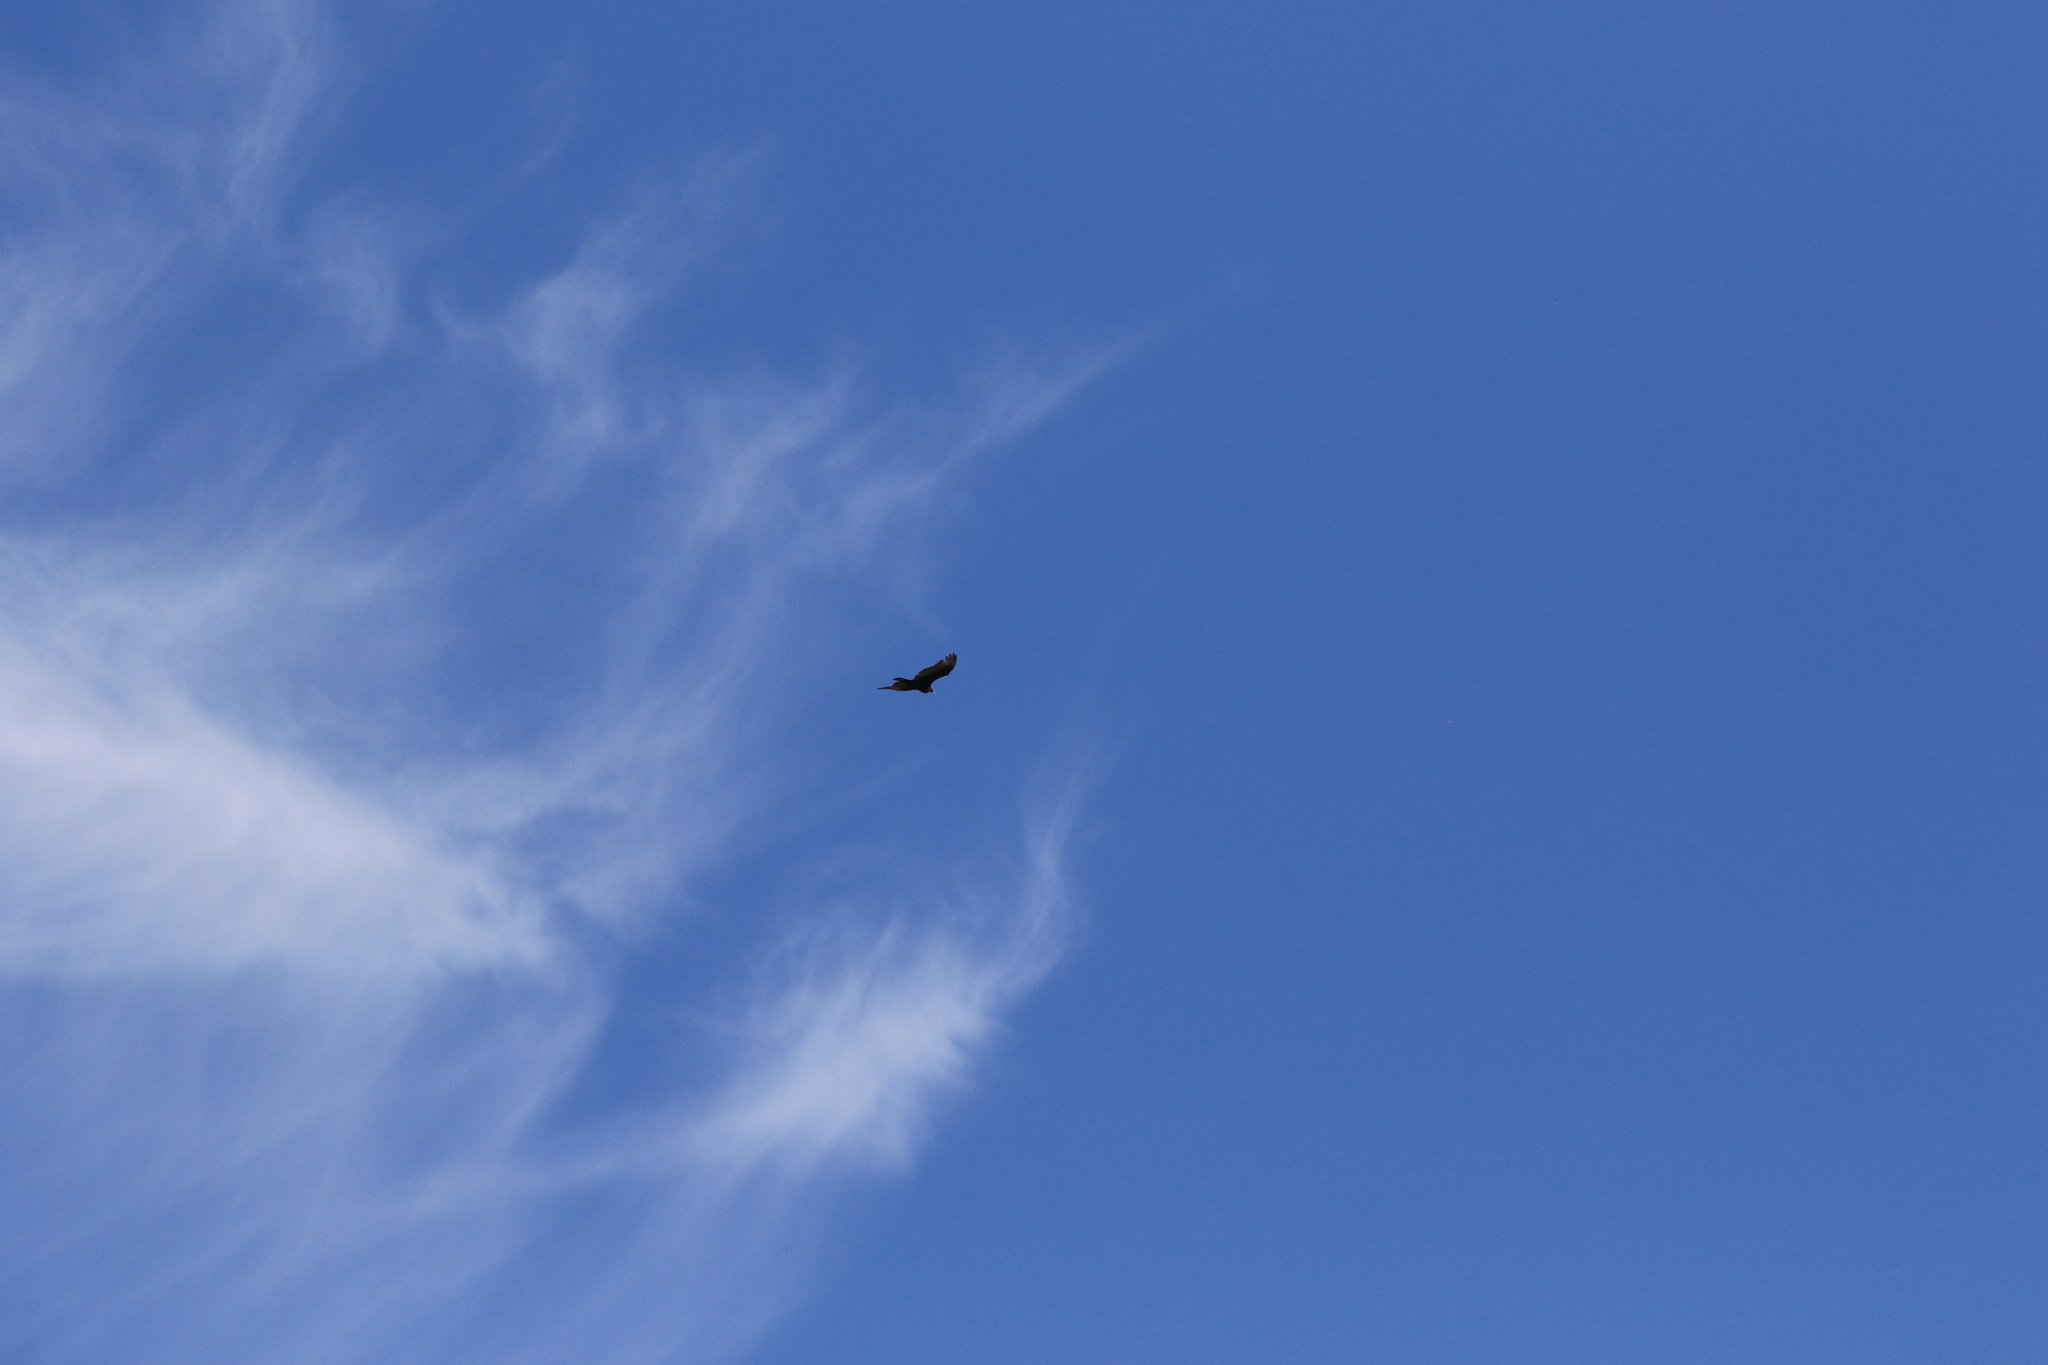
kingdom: Animalia
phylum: Chordata
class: Aves
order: Accipitriformes
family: Cathartidae
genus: Cathartes
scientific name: Cathartes aura
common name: Turkey vulture
